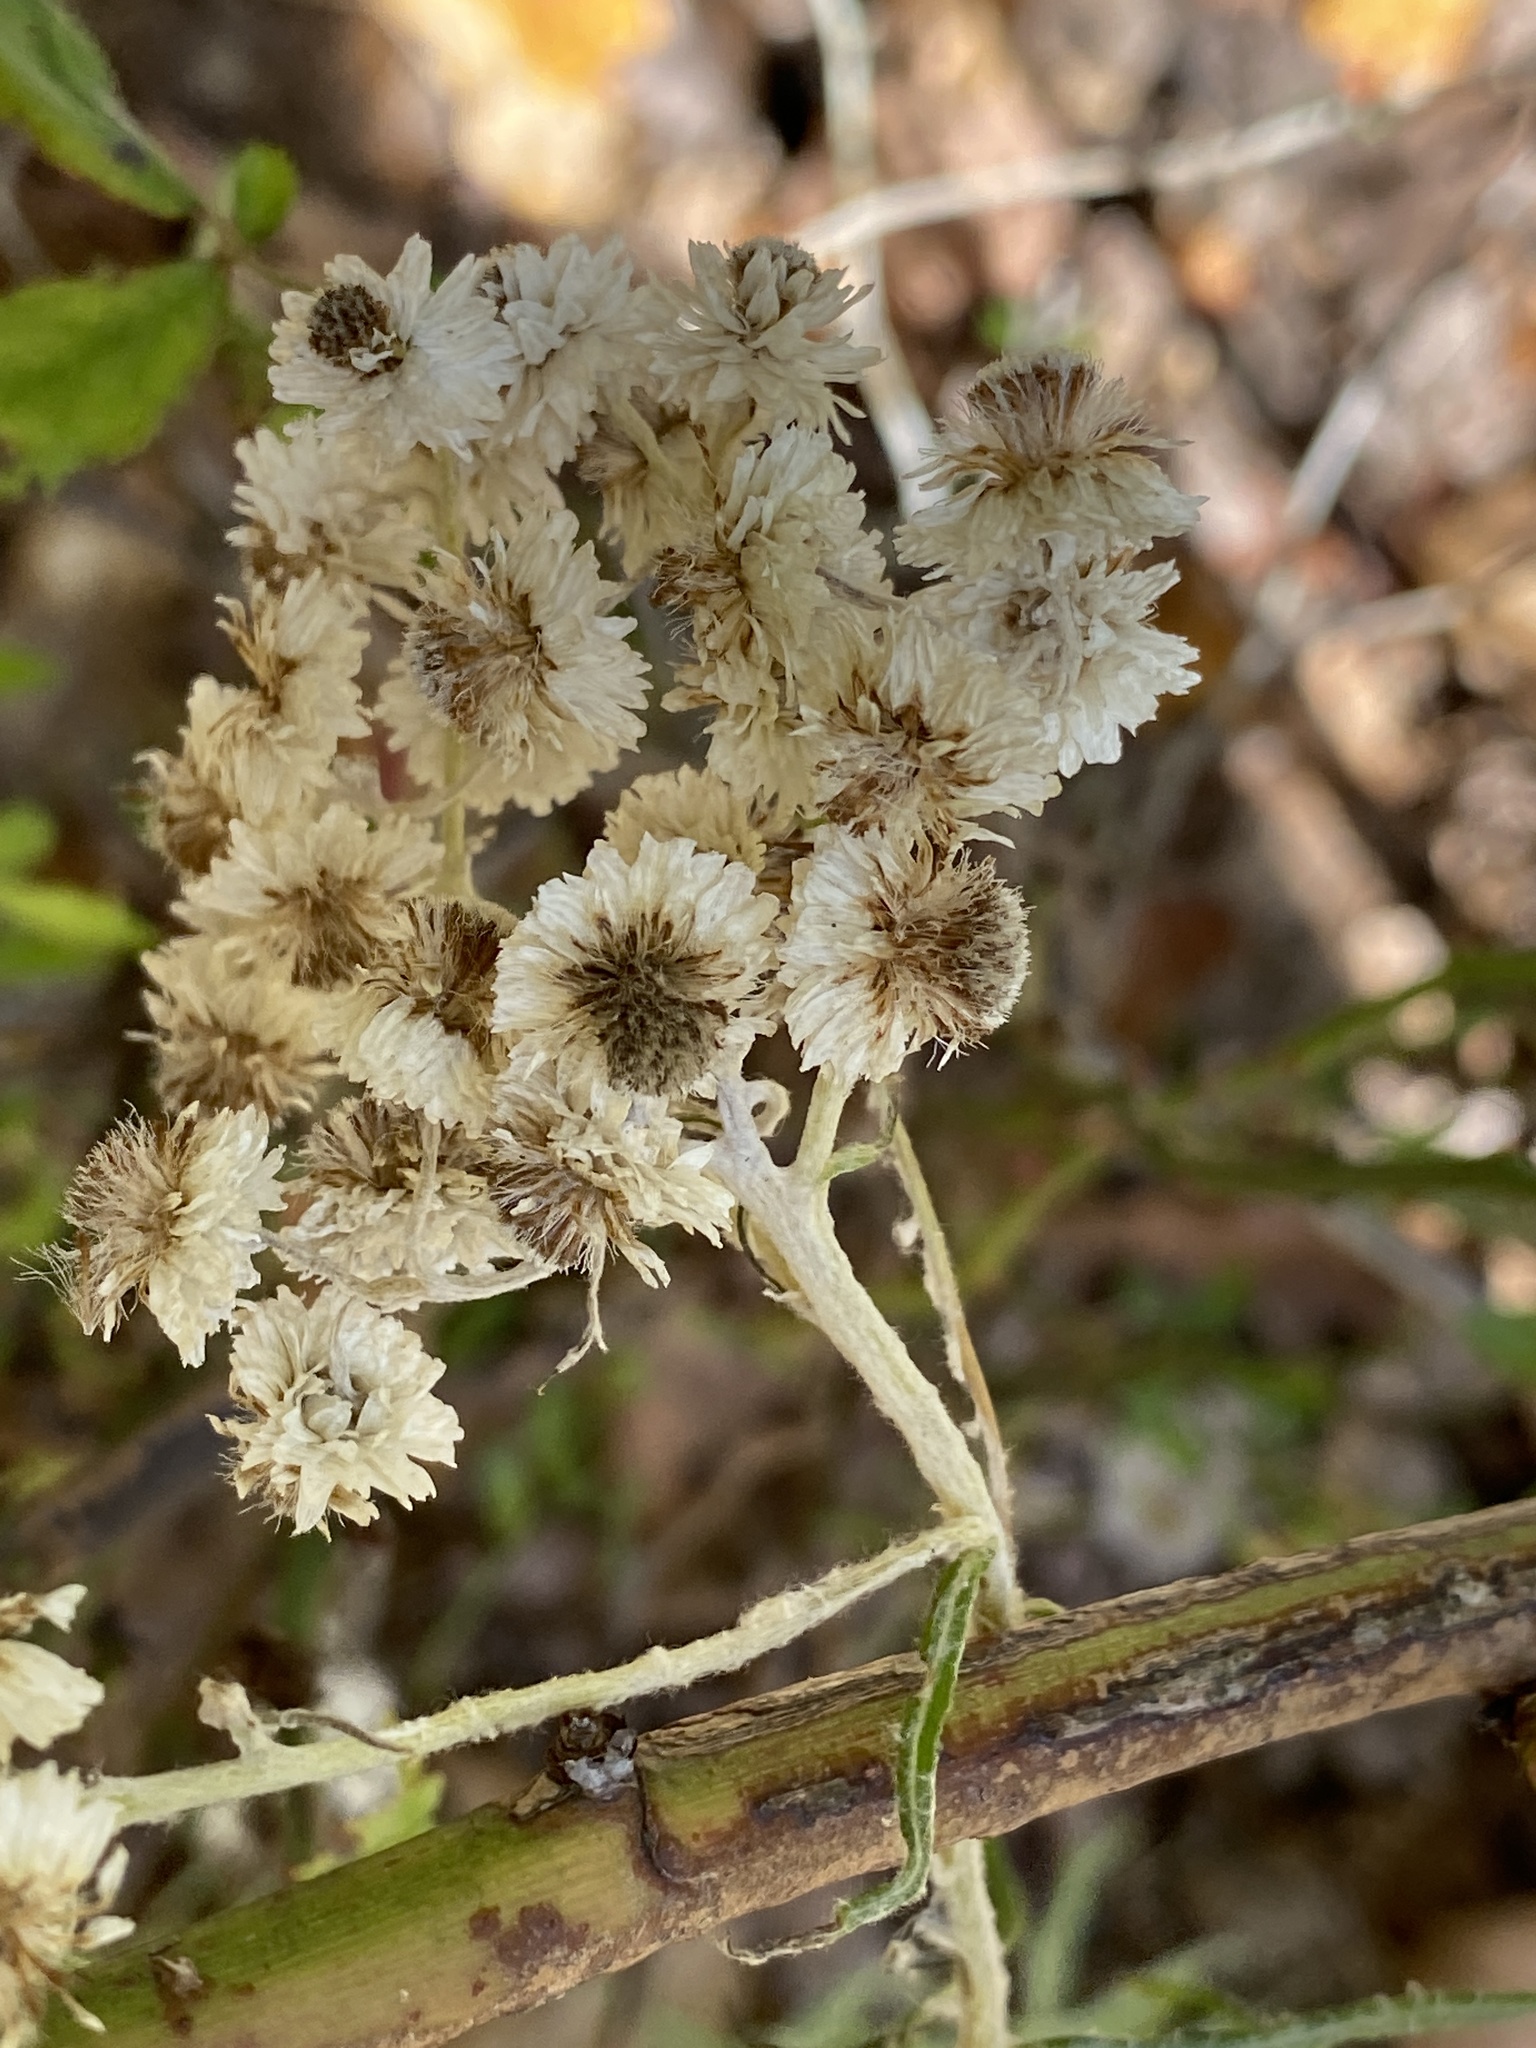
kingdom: Plantae
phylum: Tracheophyta
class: Magnoliopsida
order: Asterales
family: Asteraceae
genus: Anaphalis
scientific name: Anaphalis margaritacea
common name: Pearly everlasting
